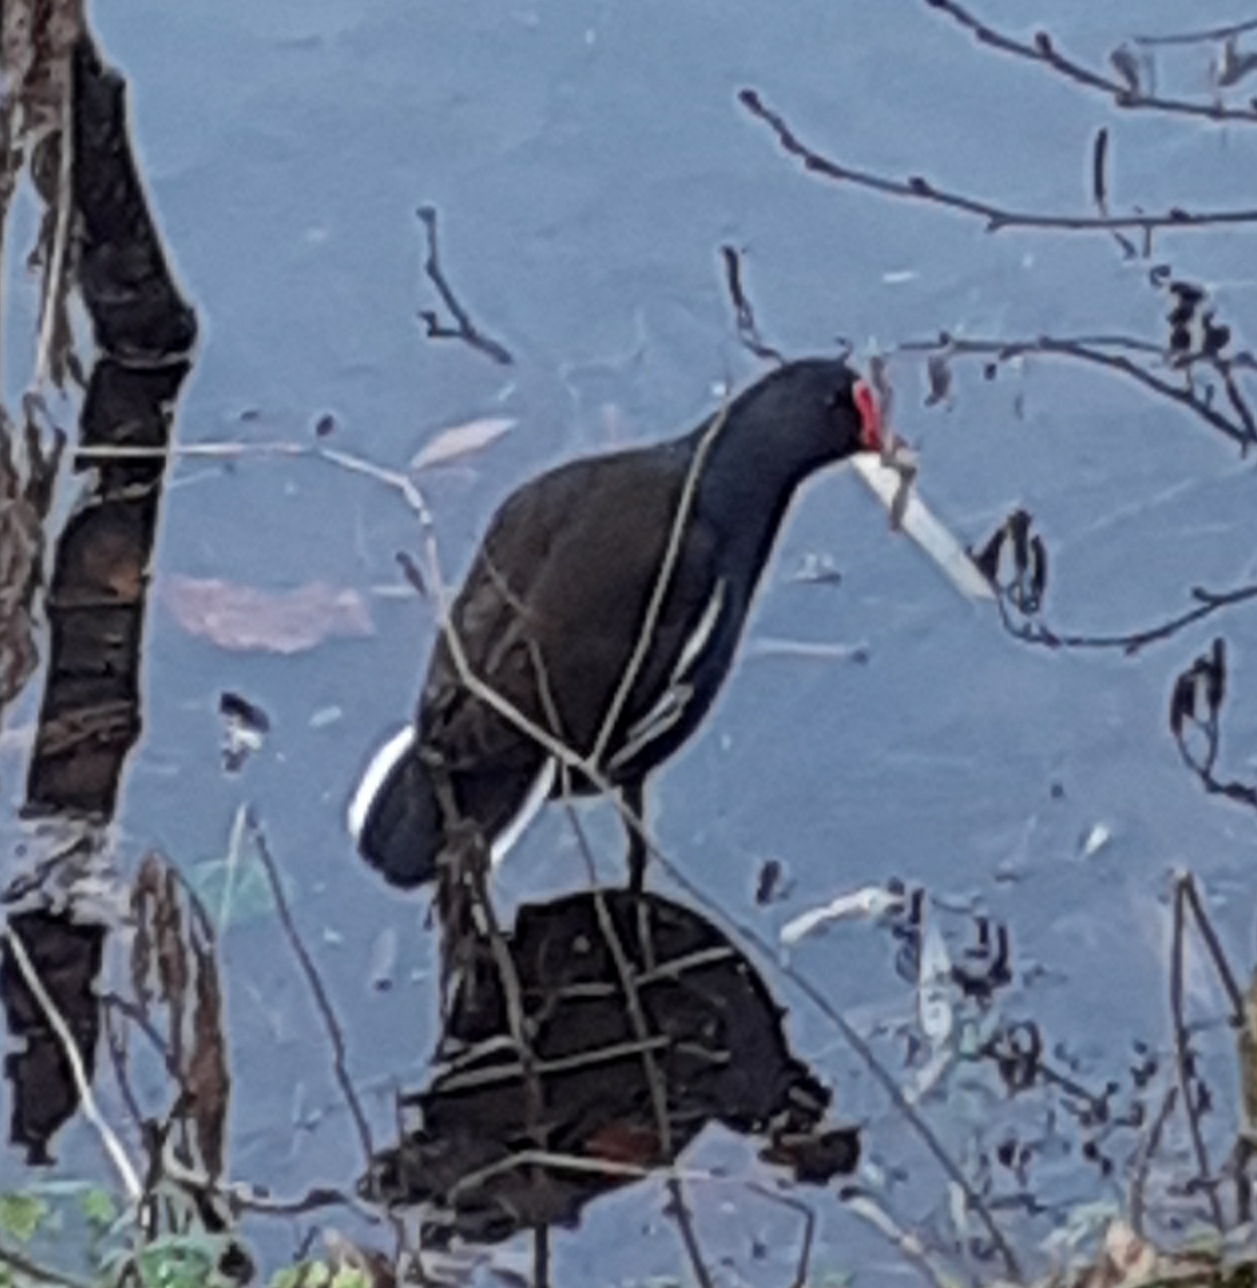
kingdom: Animalia
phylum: Chordata
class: Aves
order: Gruiformes
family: Rallidae
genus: Gallinula
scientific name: Gallinula chloropus
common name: Common moorhen
